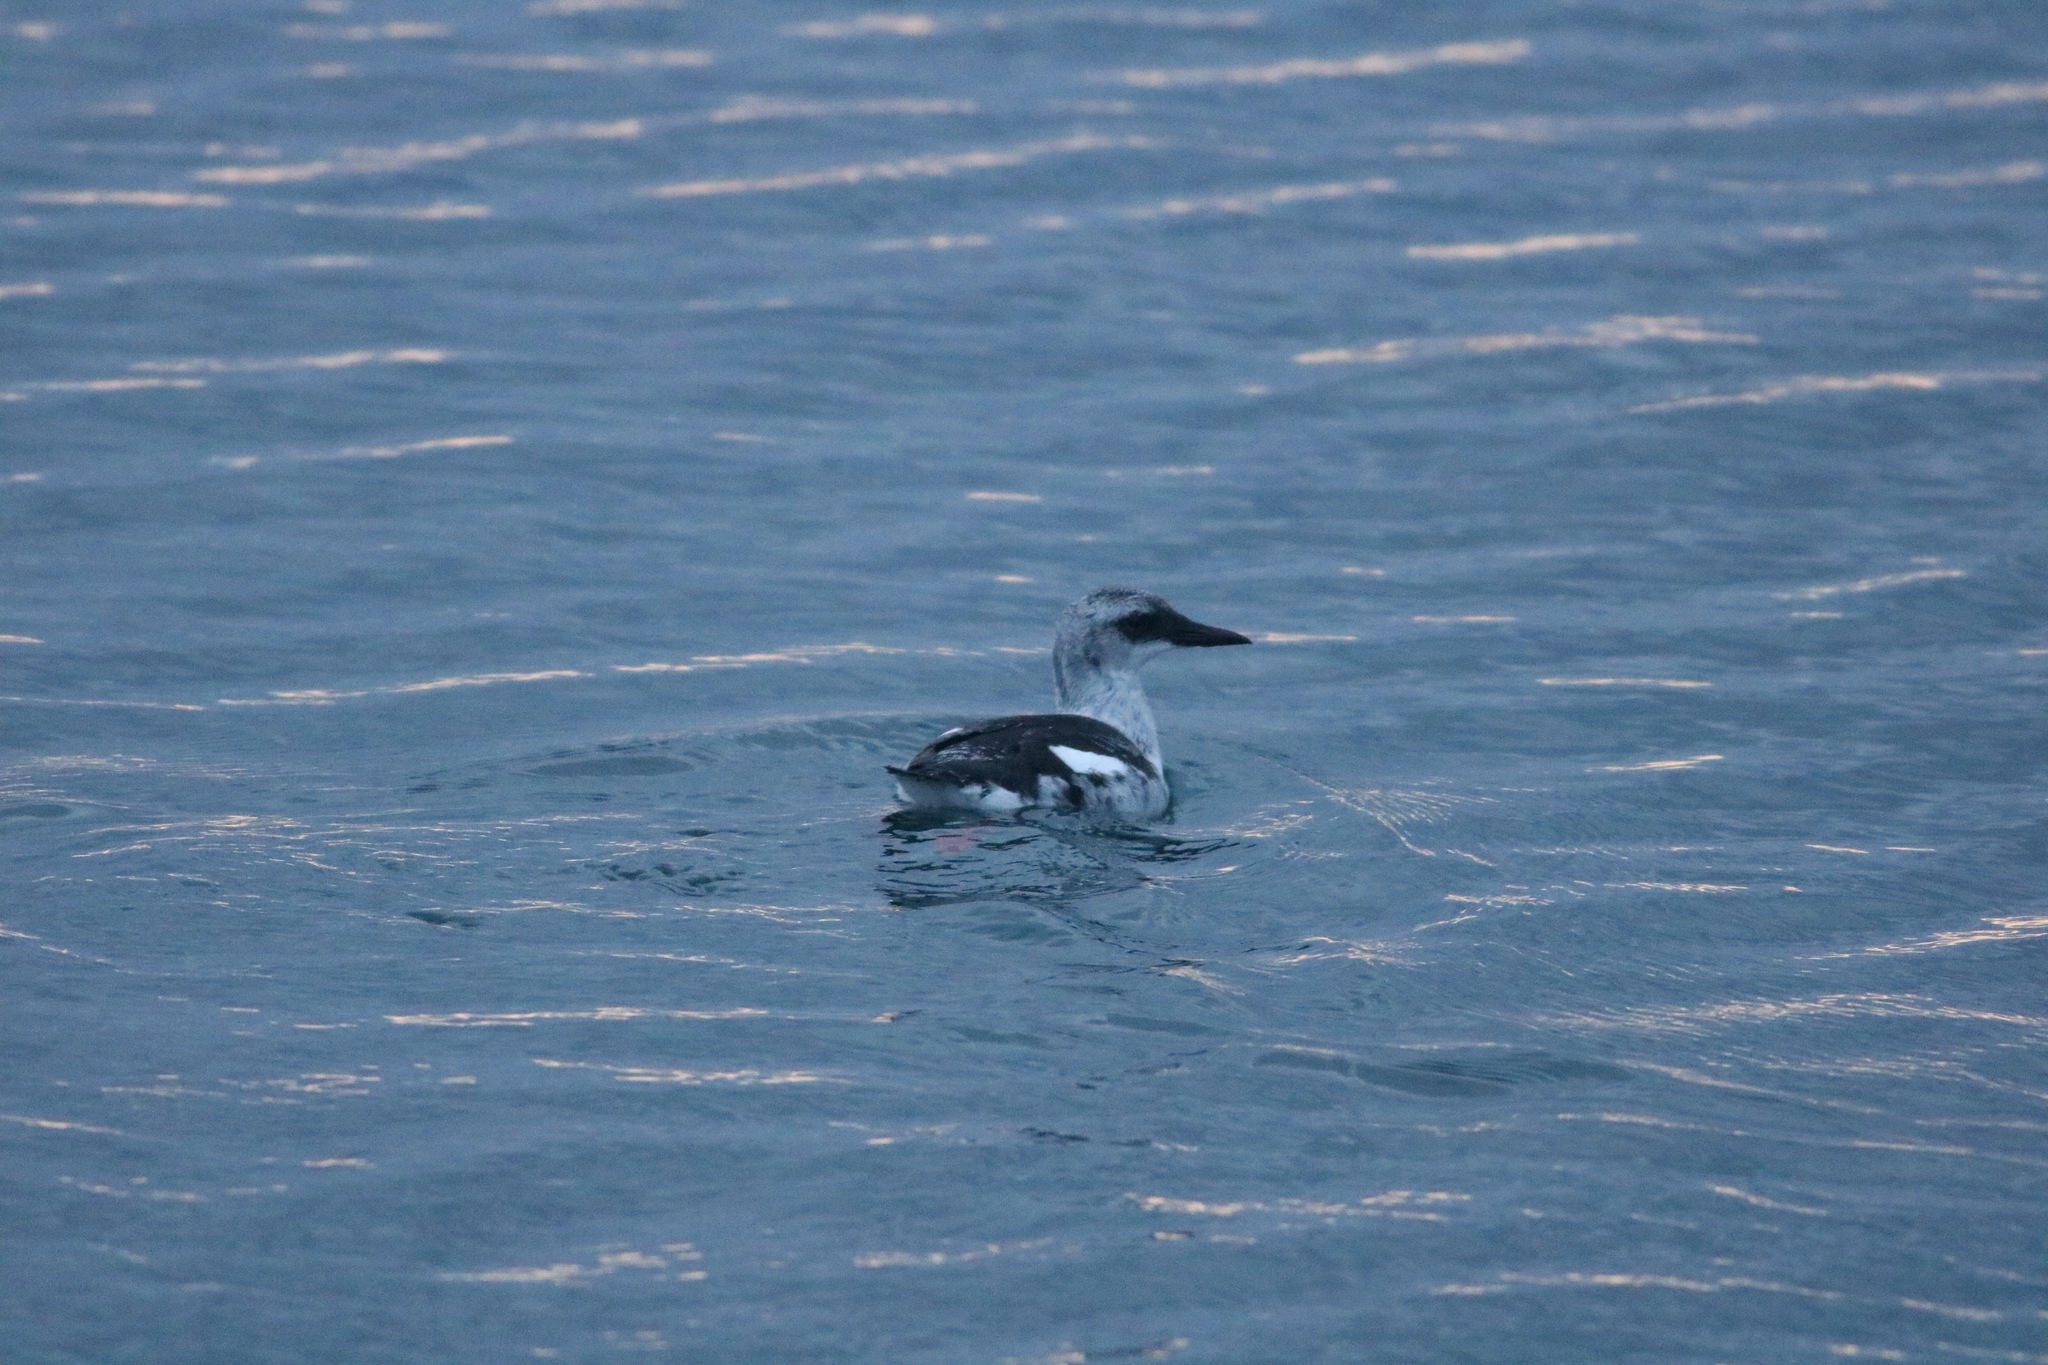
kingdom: Animalia
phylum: Chordata
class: Aves
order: Charadriiformes
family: Alcidae
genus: Cepphus
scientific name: Cepphus grylle
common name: Black guillemot
